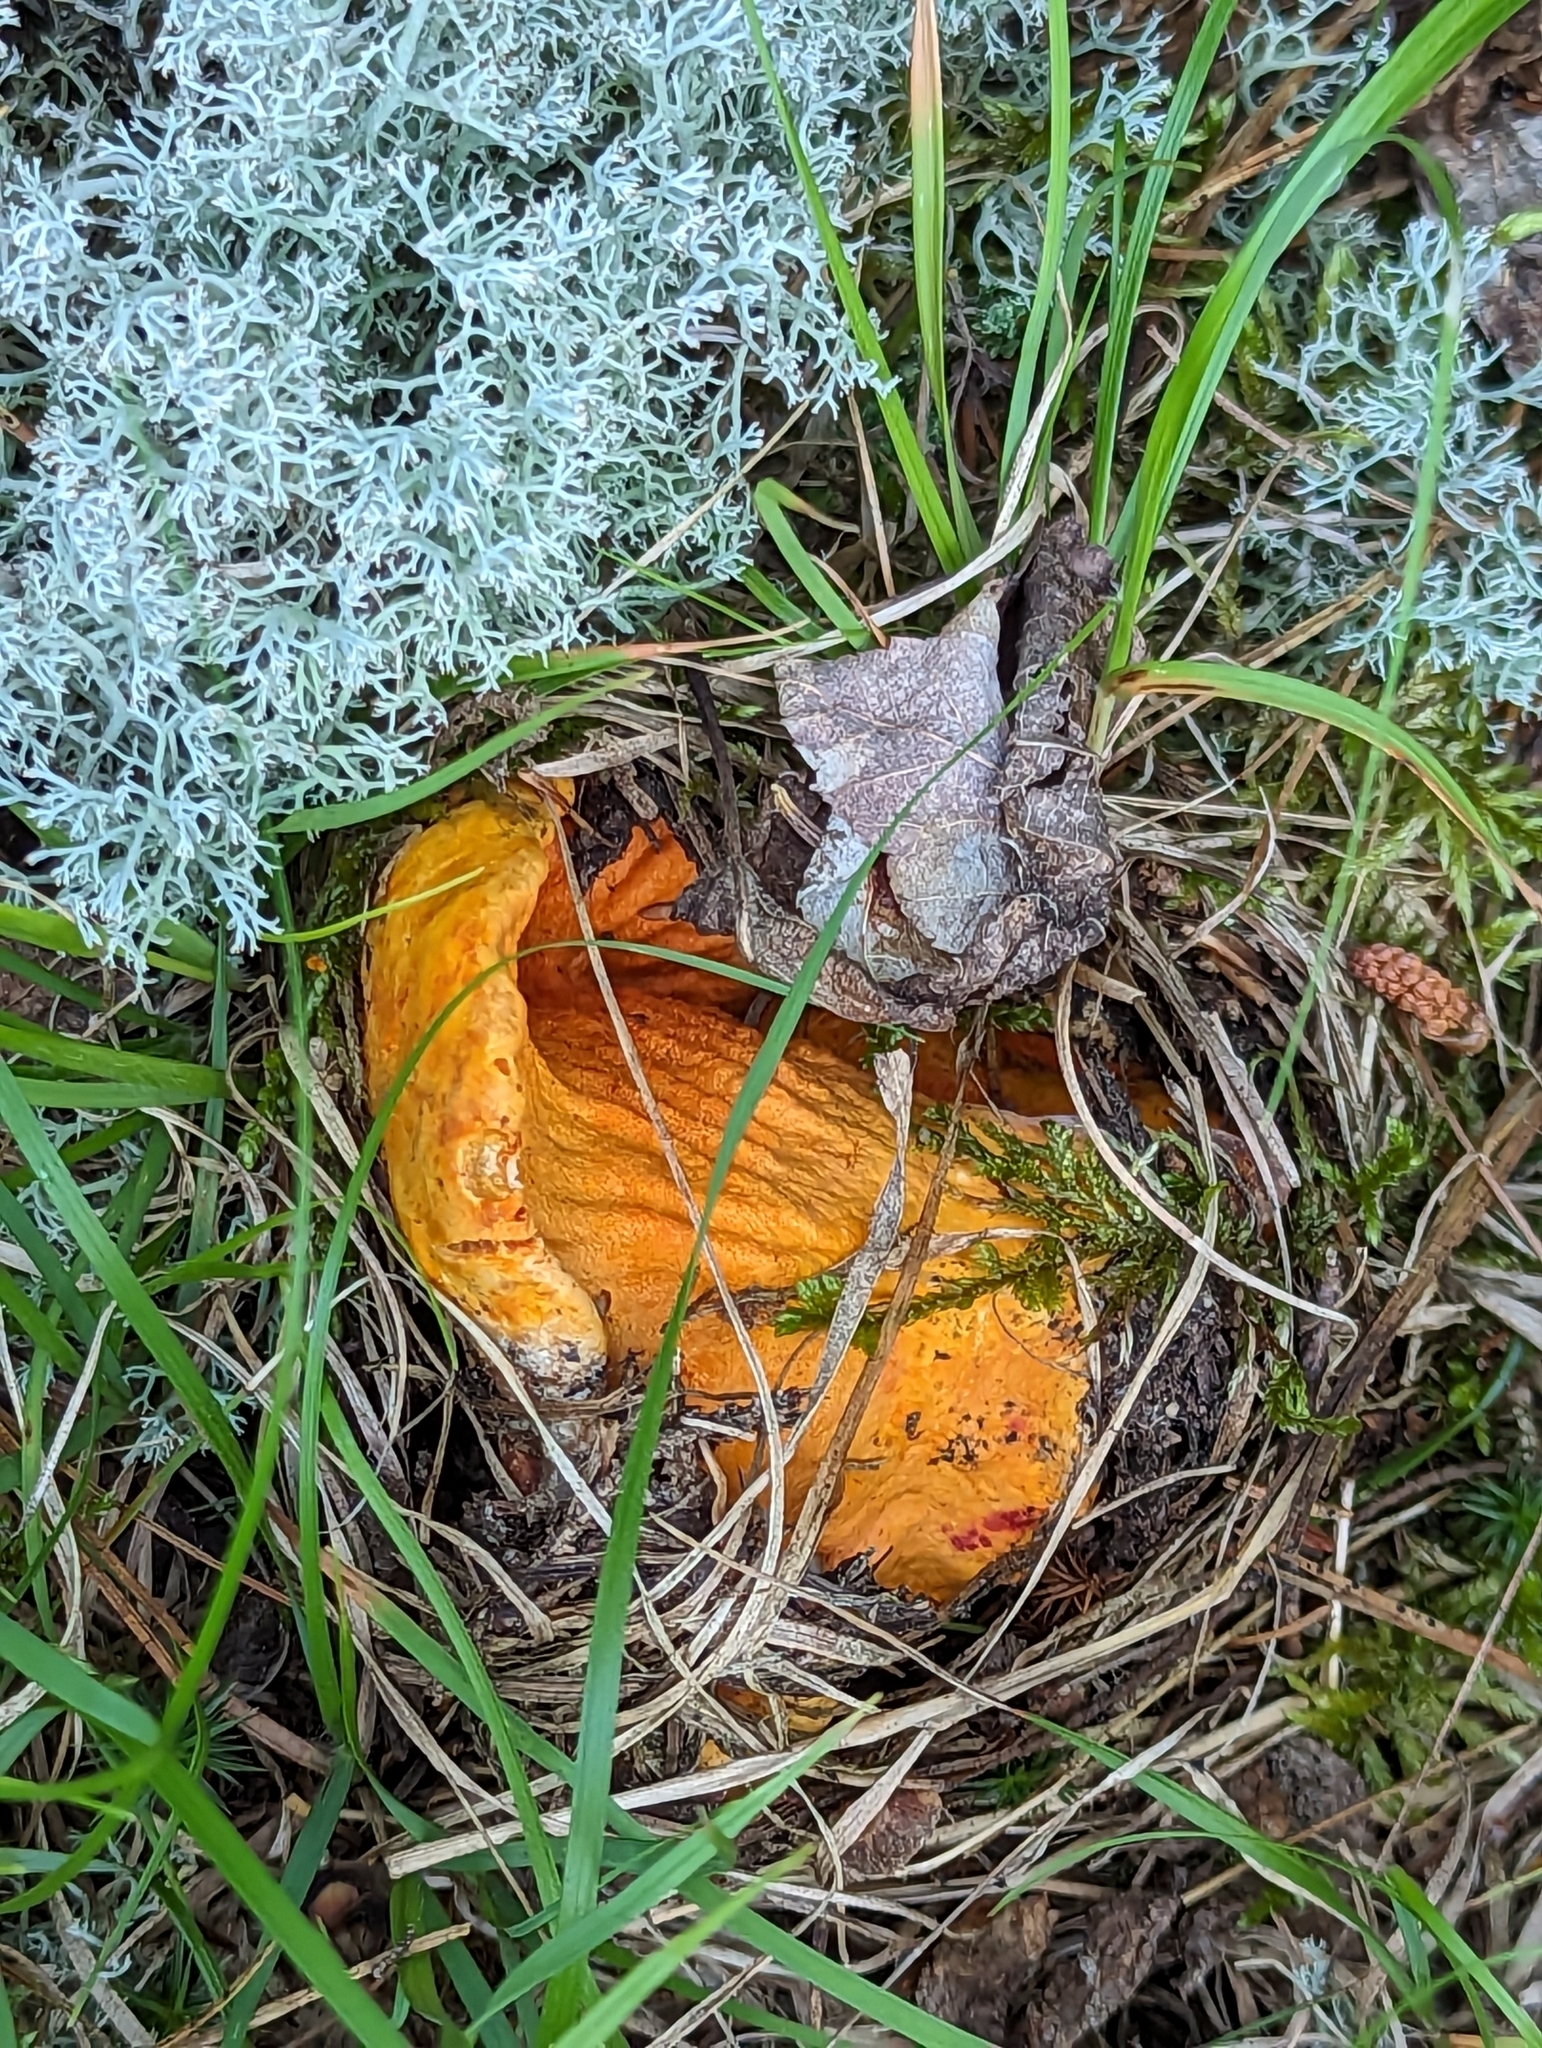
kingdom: Fungi
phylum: Ascomycota
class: Sordariomycetes
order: Hypocreales
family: Hypocreaceae
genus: Hypomyces
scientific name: Hypomyces lactifluorum
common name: Lobster mushroom
